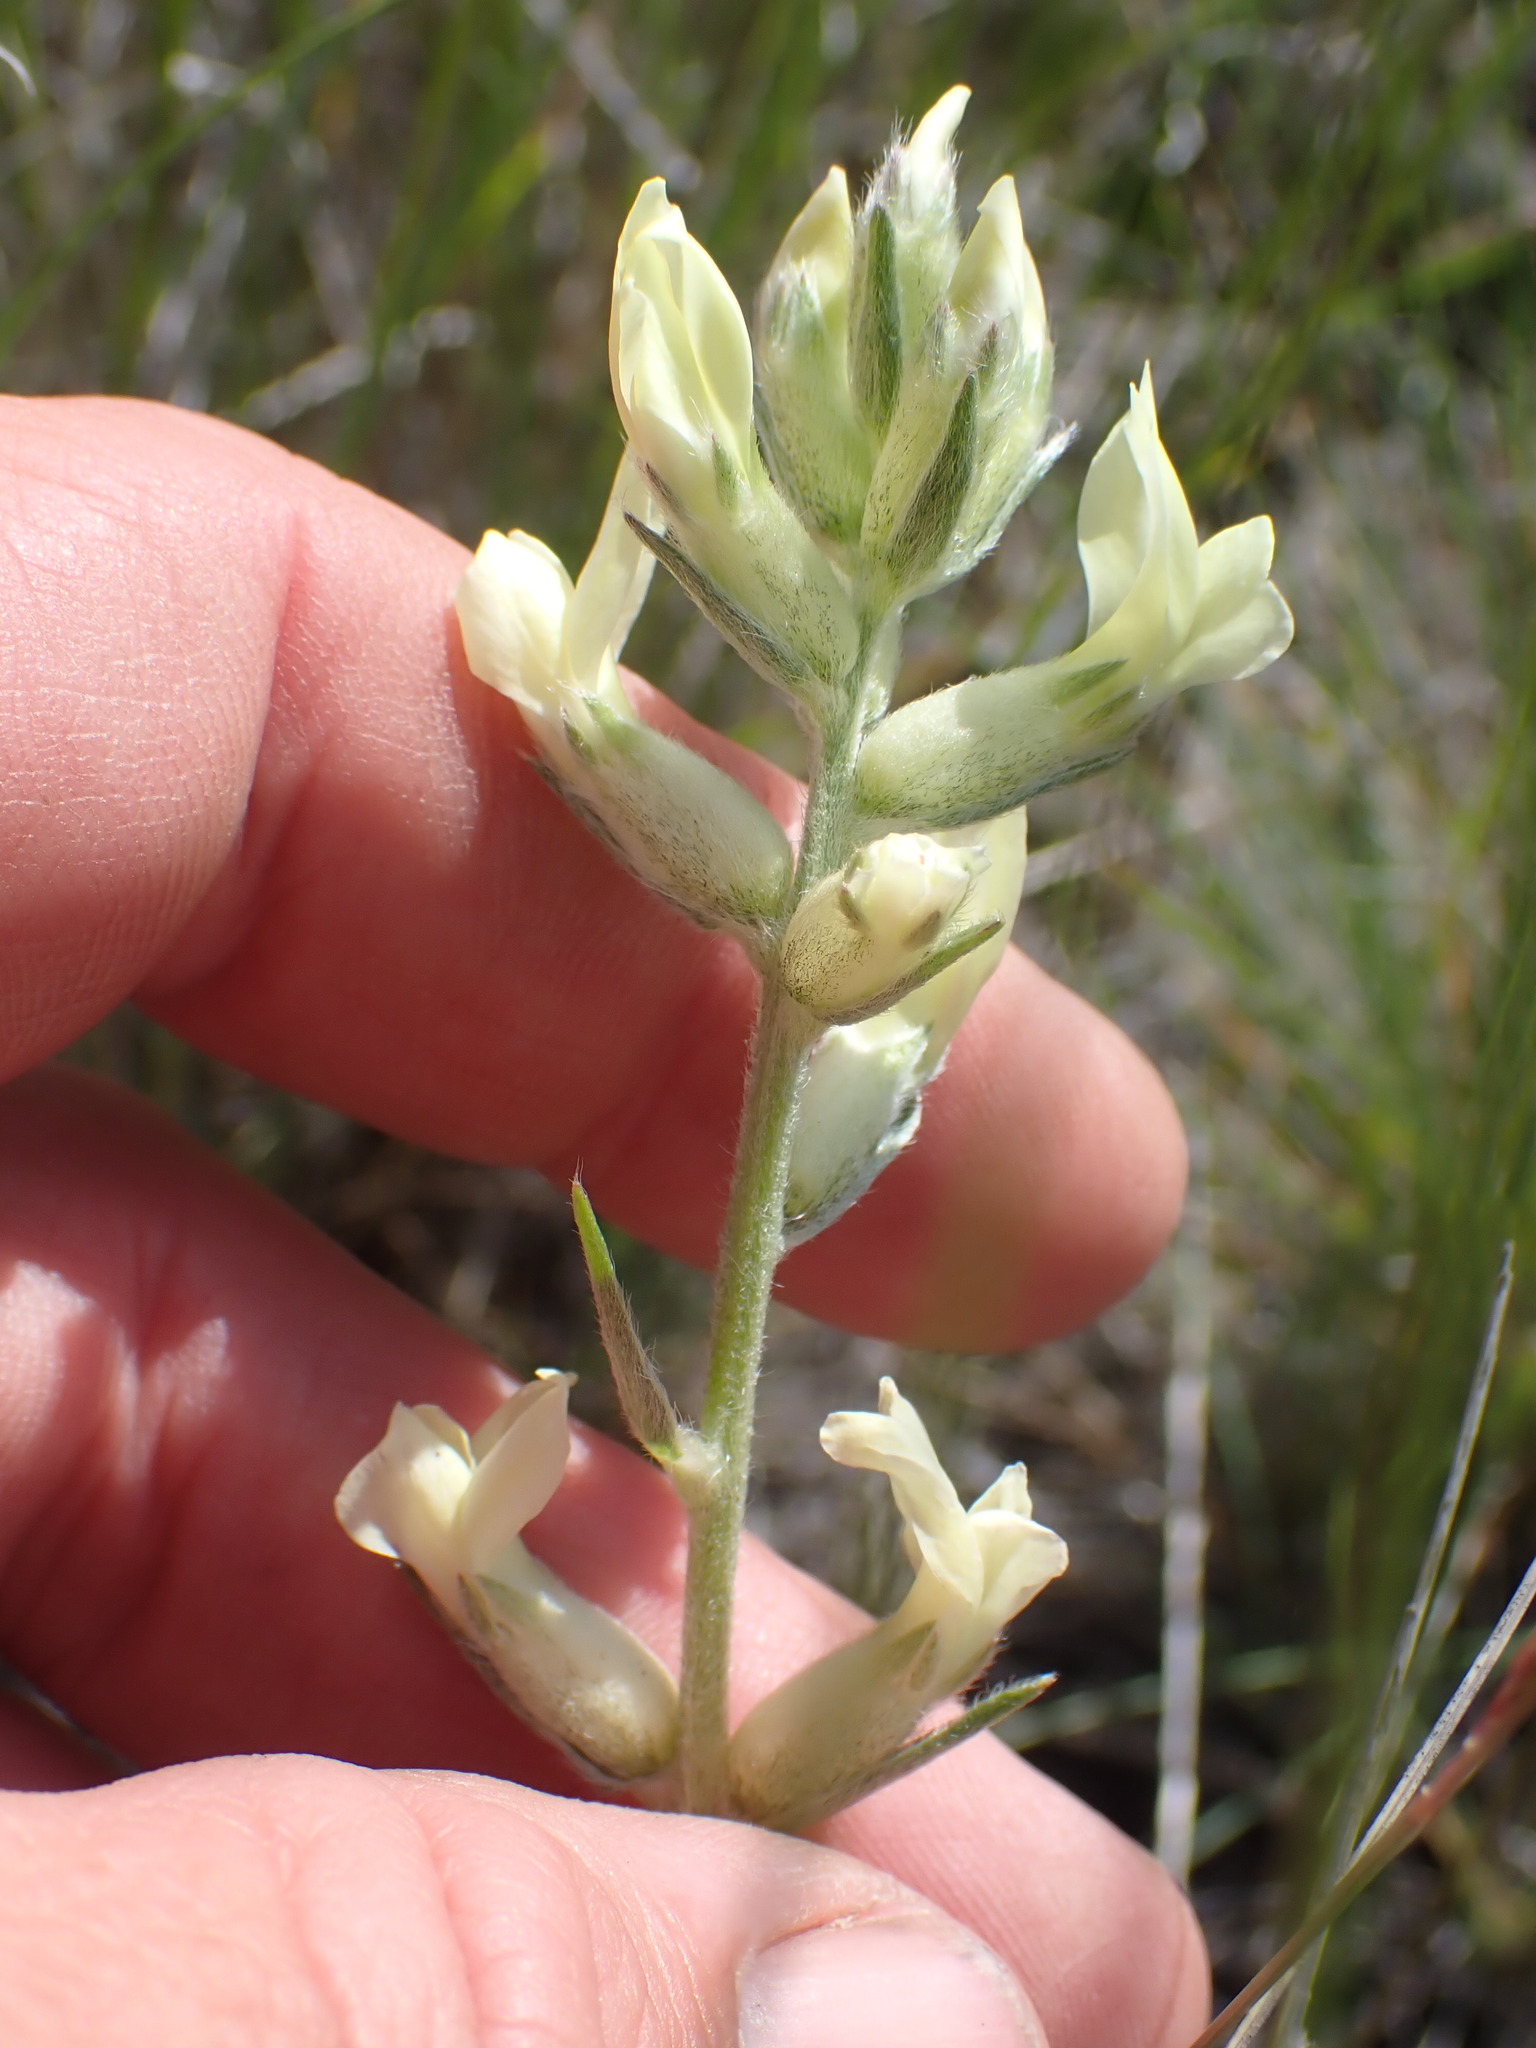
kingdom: Plantae
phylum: Tracheophyta
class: Magnoliopsida
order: Fabales
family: Fabaceae
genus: Oxytropis
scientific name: Oxytropis sericea
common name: Silky locoweed
